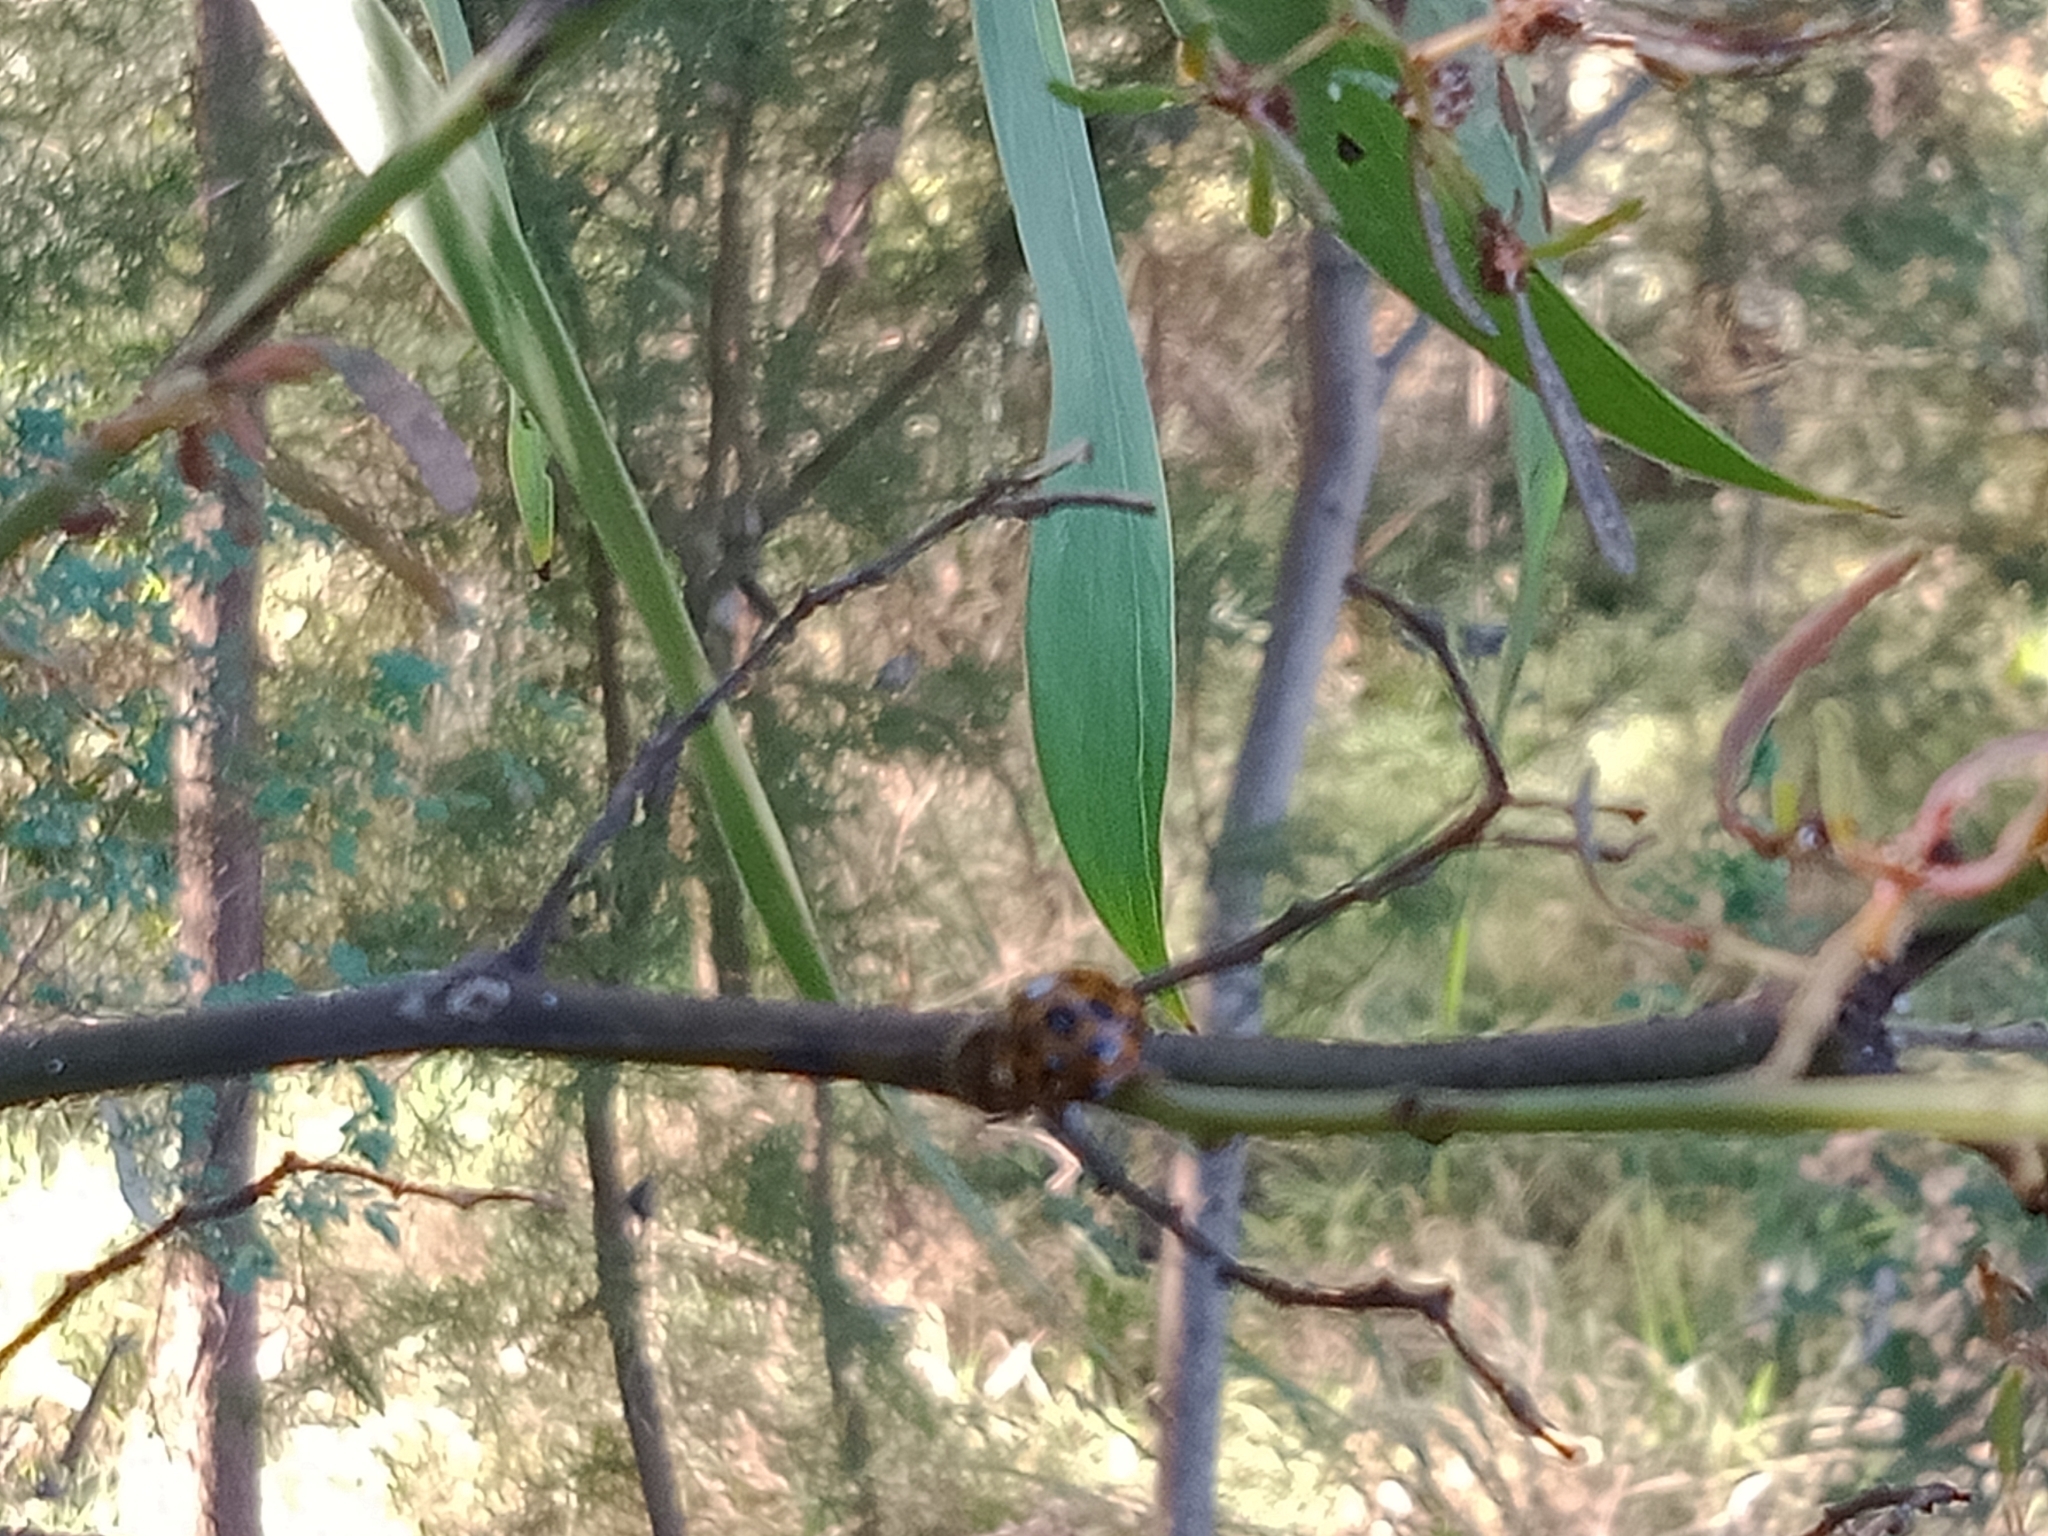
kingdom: Animalia
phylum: Arthropoda
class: Insecta
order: Coleoptera
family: Coccinellidae
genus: Harmonia
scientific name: Harmonia conformis
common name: Common spotted ladybird beetle
